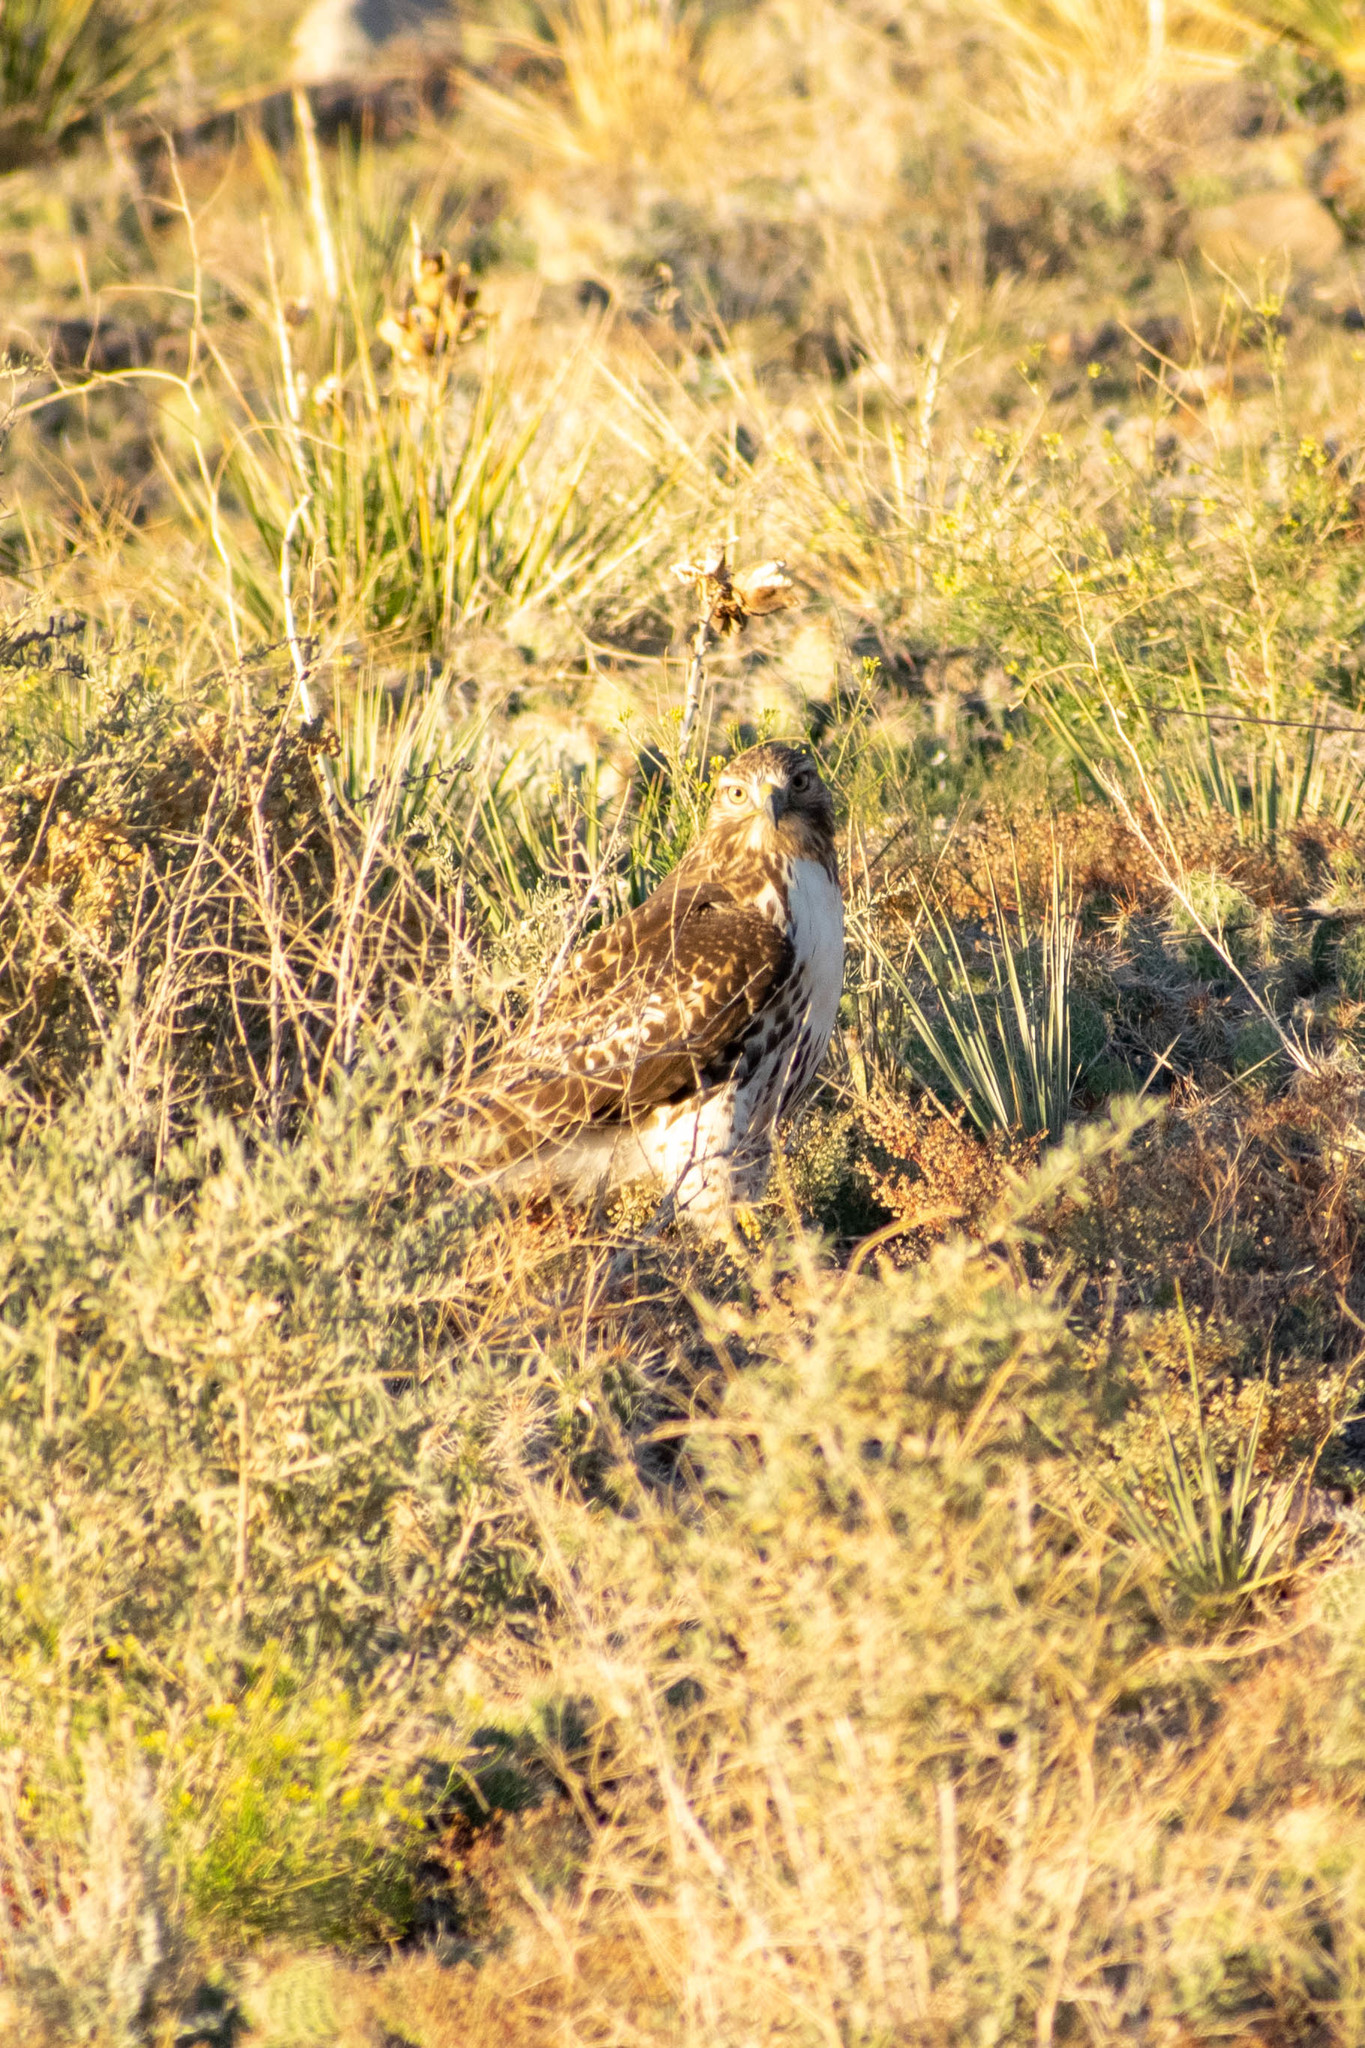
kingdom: Animalia
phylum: Chordata
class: Aves
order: Accipitriformes
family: Accipitridae
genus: Buteo
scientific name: Buteo jamaicensis
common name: Red-tailed hawk
